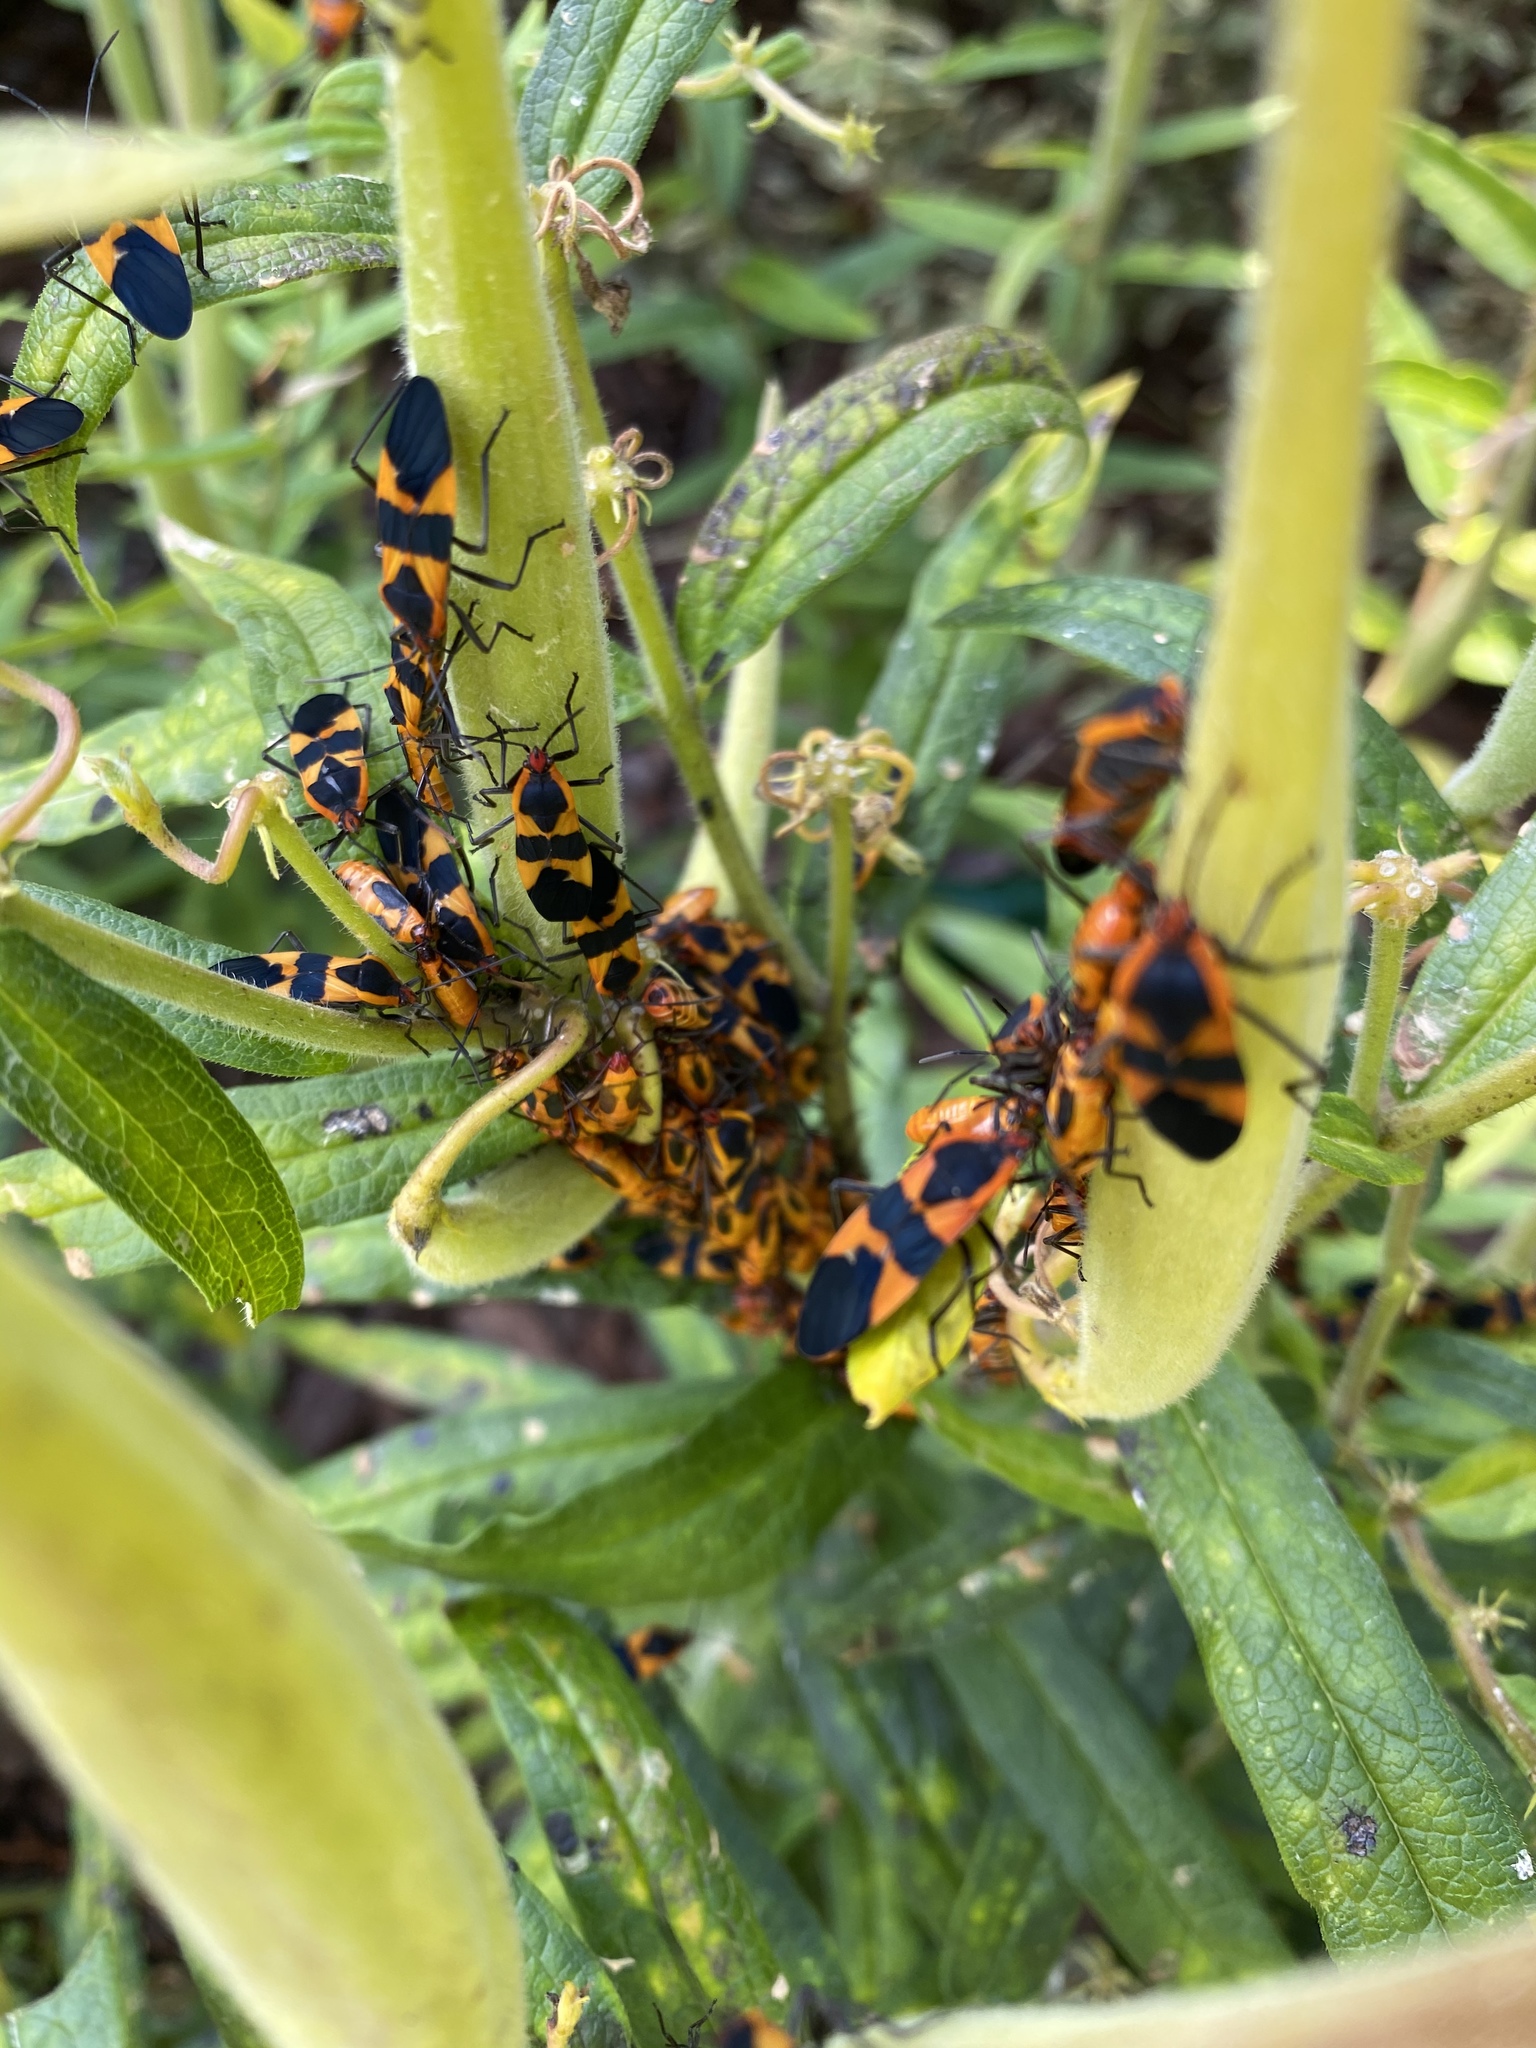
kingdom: Animalia
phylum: Arthropoda
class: Insecta
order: Hemiptera
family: Lygaeidae
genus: Oncopeltus
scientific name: Oncopeltus fasciatus
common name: Large milkweed bug
